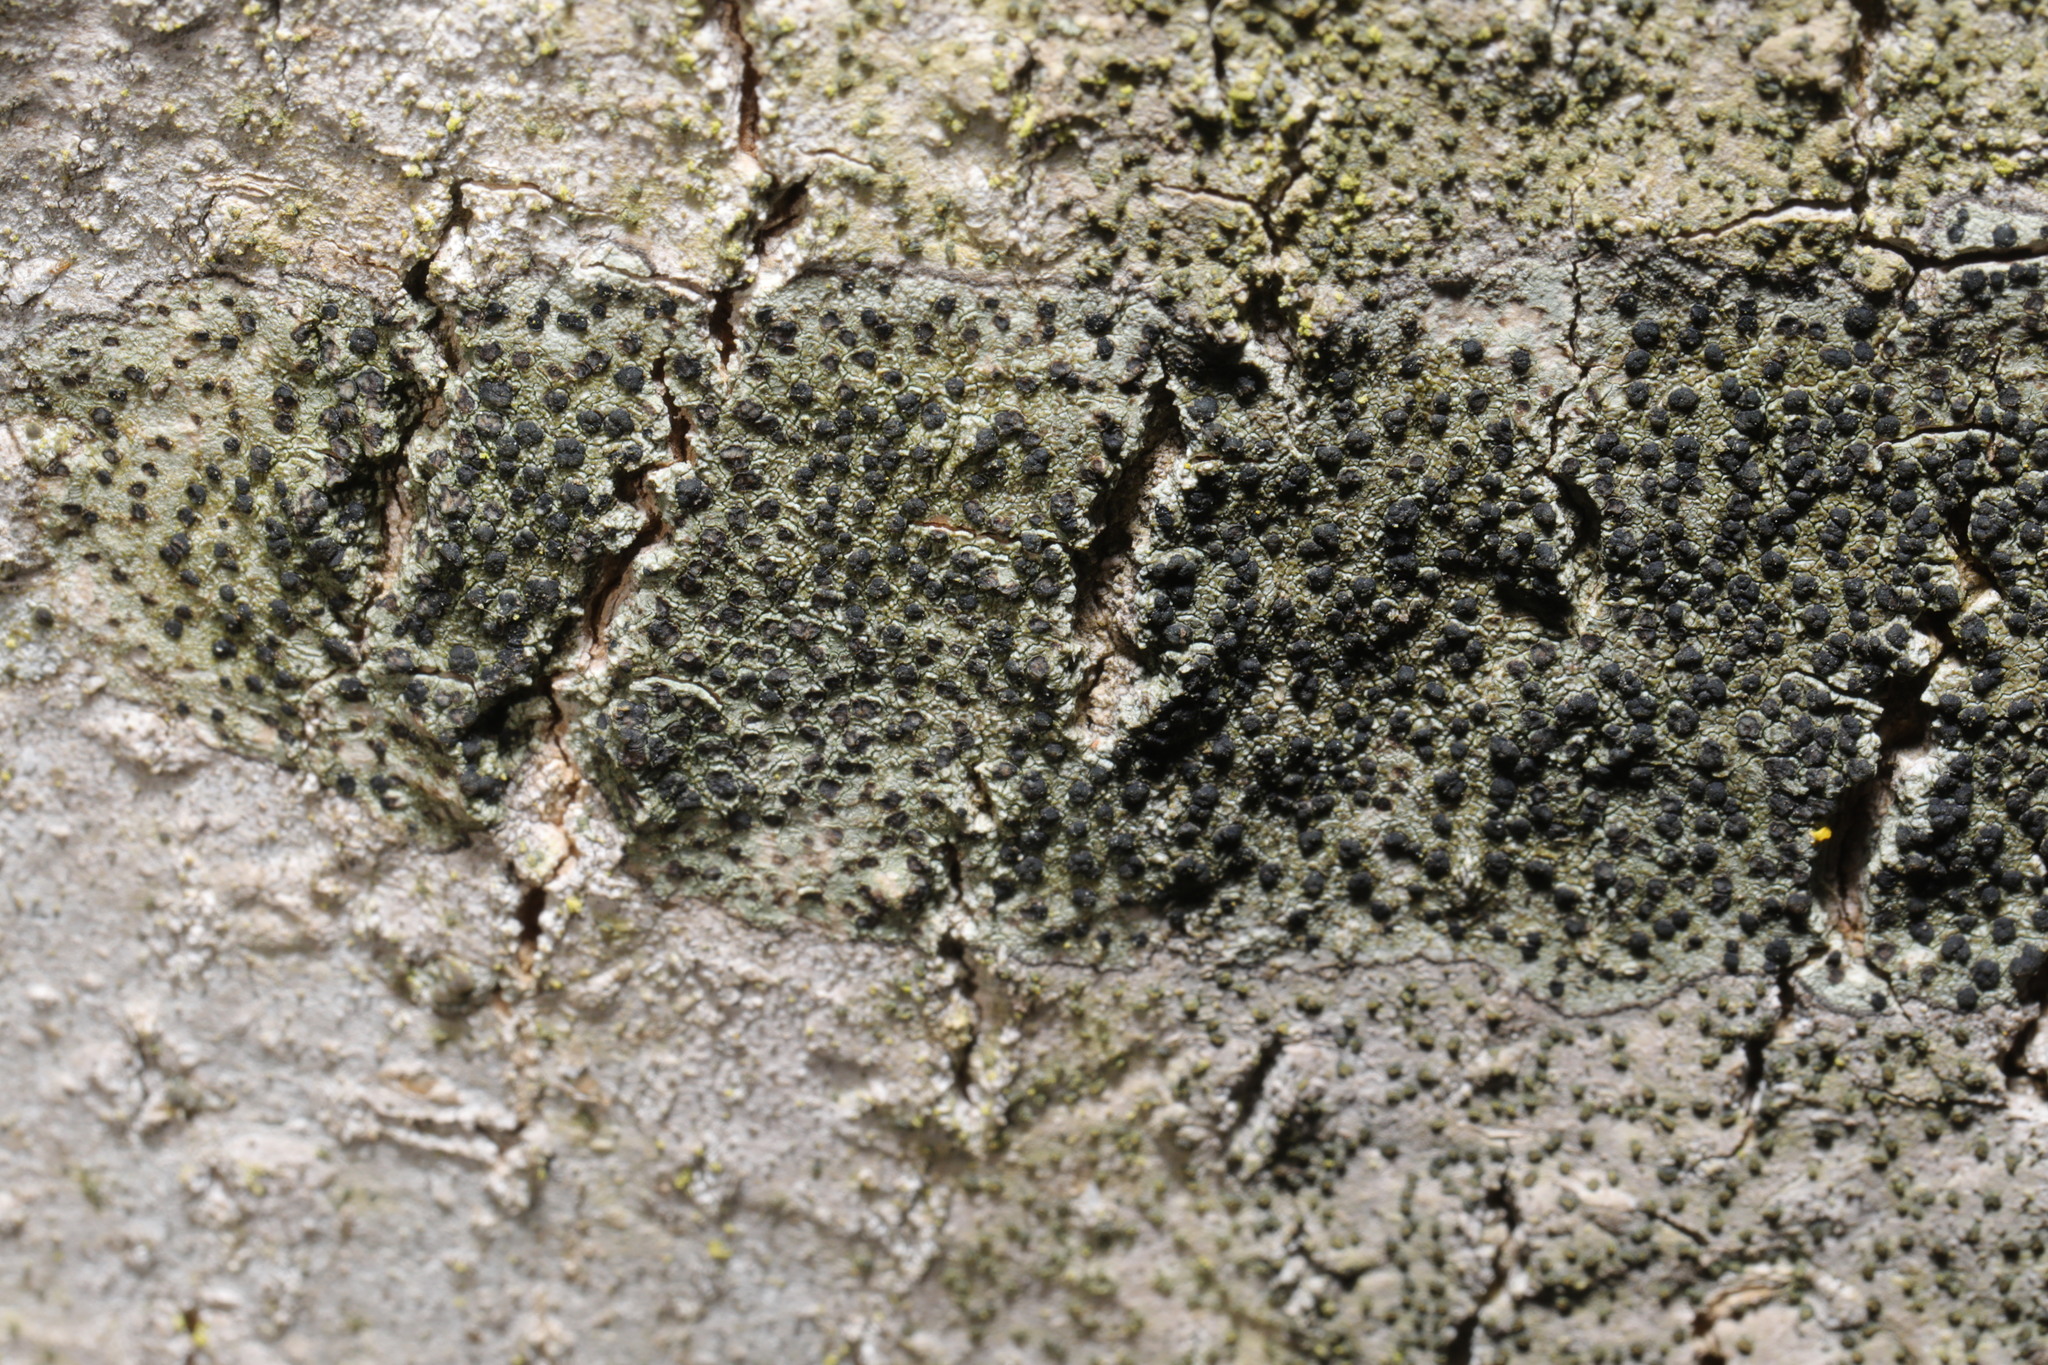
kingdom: Fungi
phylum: Ascomycota
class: Lecanoromycetes
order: Lecanorales
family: Lecanoraceae
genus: Lecidella
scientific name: Lecidella elaeochroma
